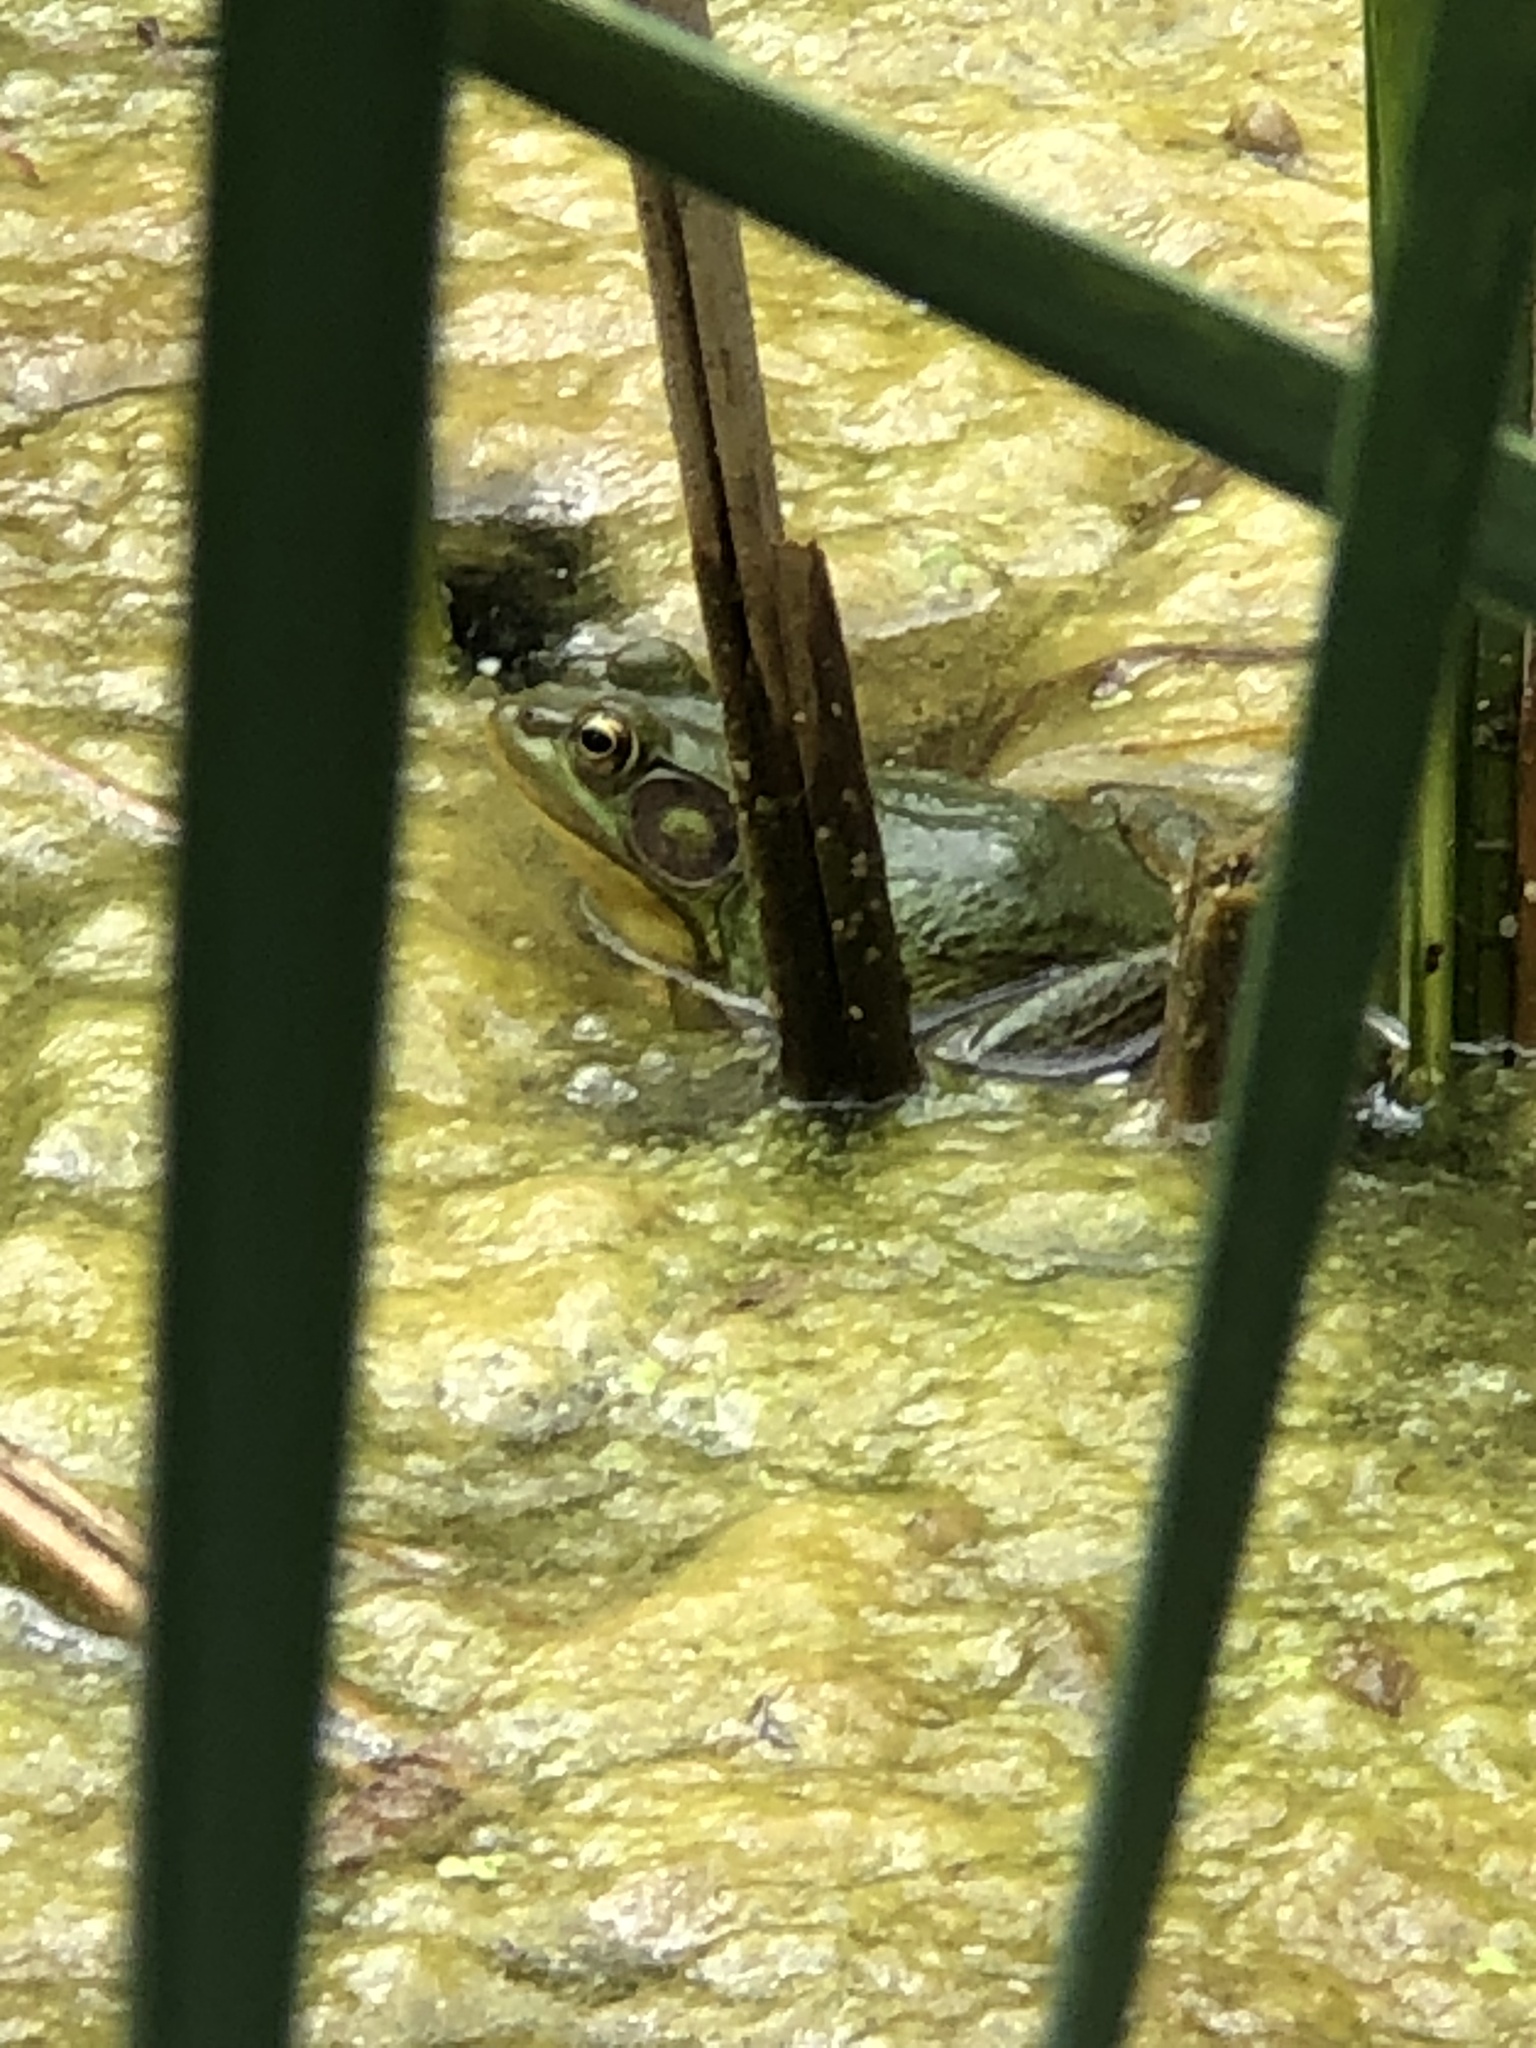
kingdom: Animalia
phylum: Chordata
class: Amphibia
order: Anura
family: Ranidae
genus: Lithobates
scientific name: Lithobates catesbeianus
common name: American bullfrog
